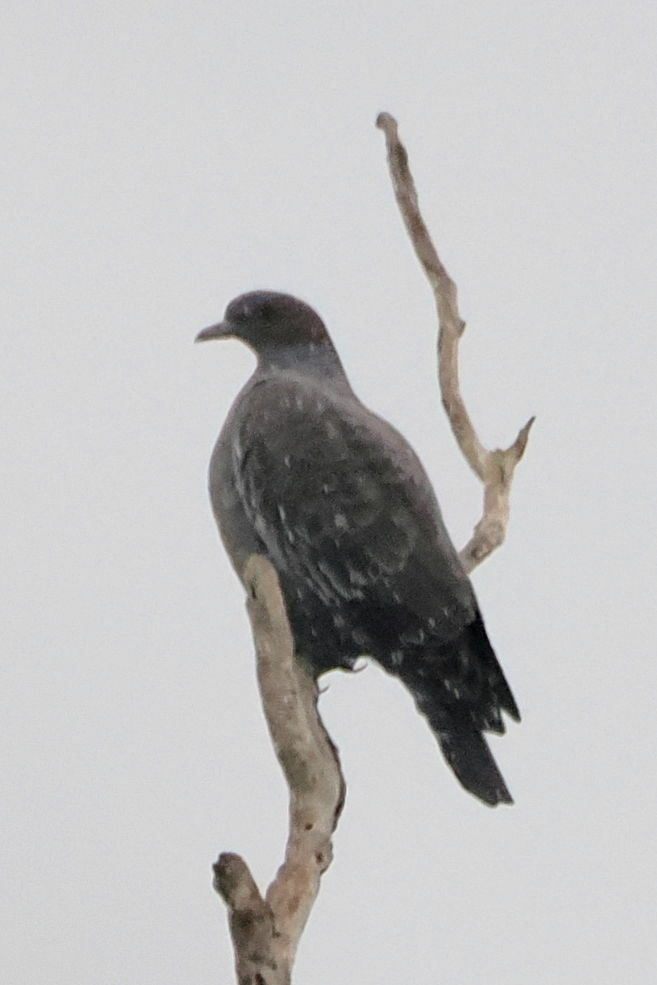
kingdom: Animalia
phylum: Chordata
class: Aves
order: Columbiformes
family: Columbidae
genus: Patagioenas
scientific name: Patagioenas picazuro
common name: Picazuro pigeon
